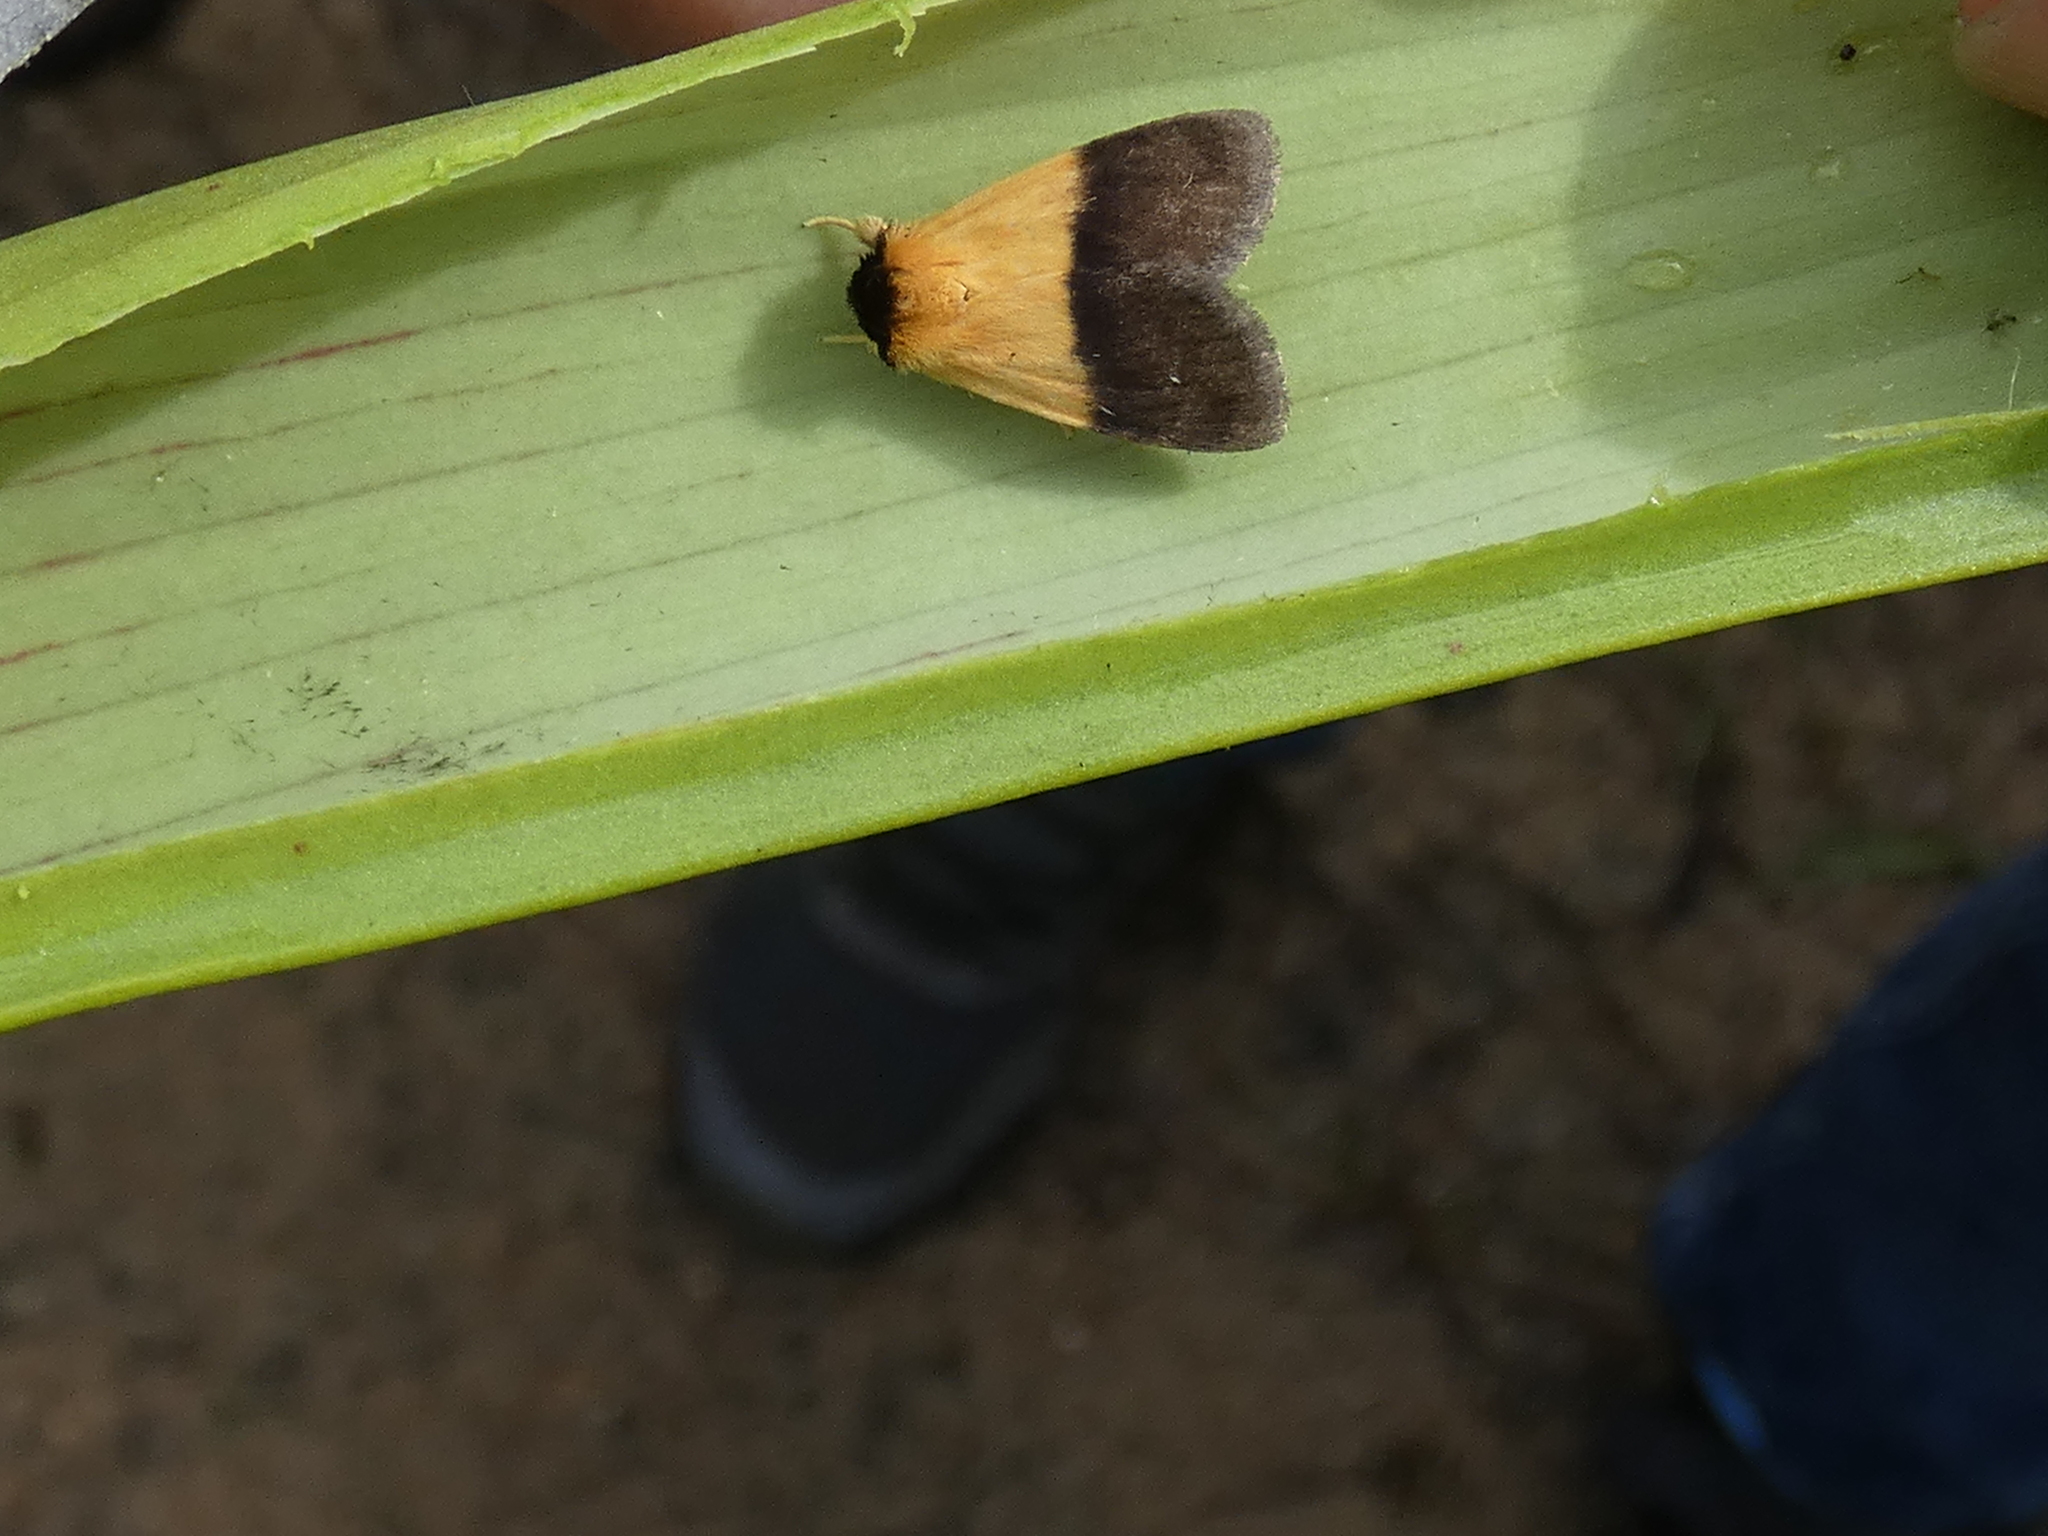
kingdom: Animalia
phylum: Arthropoda
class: Insecta
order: Lepidoptera
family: Noctuidae
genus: Exyra
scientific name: Exyra semicrocea
